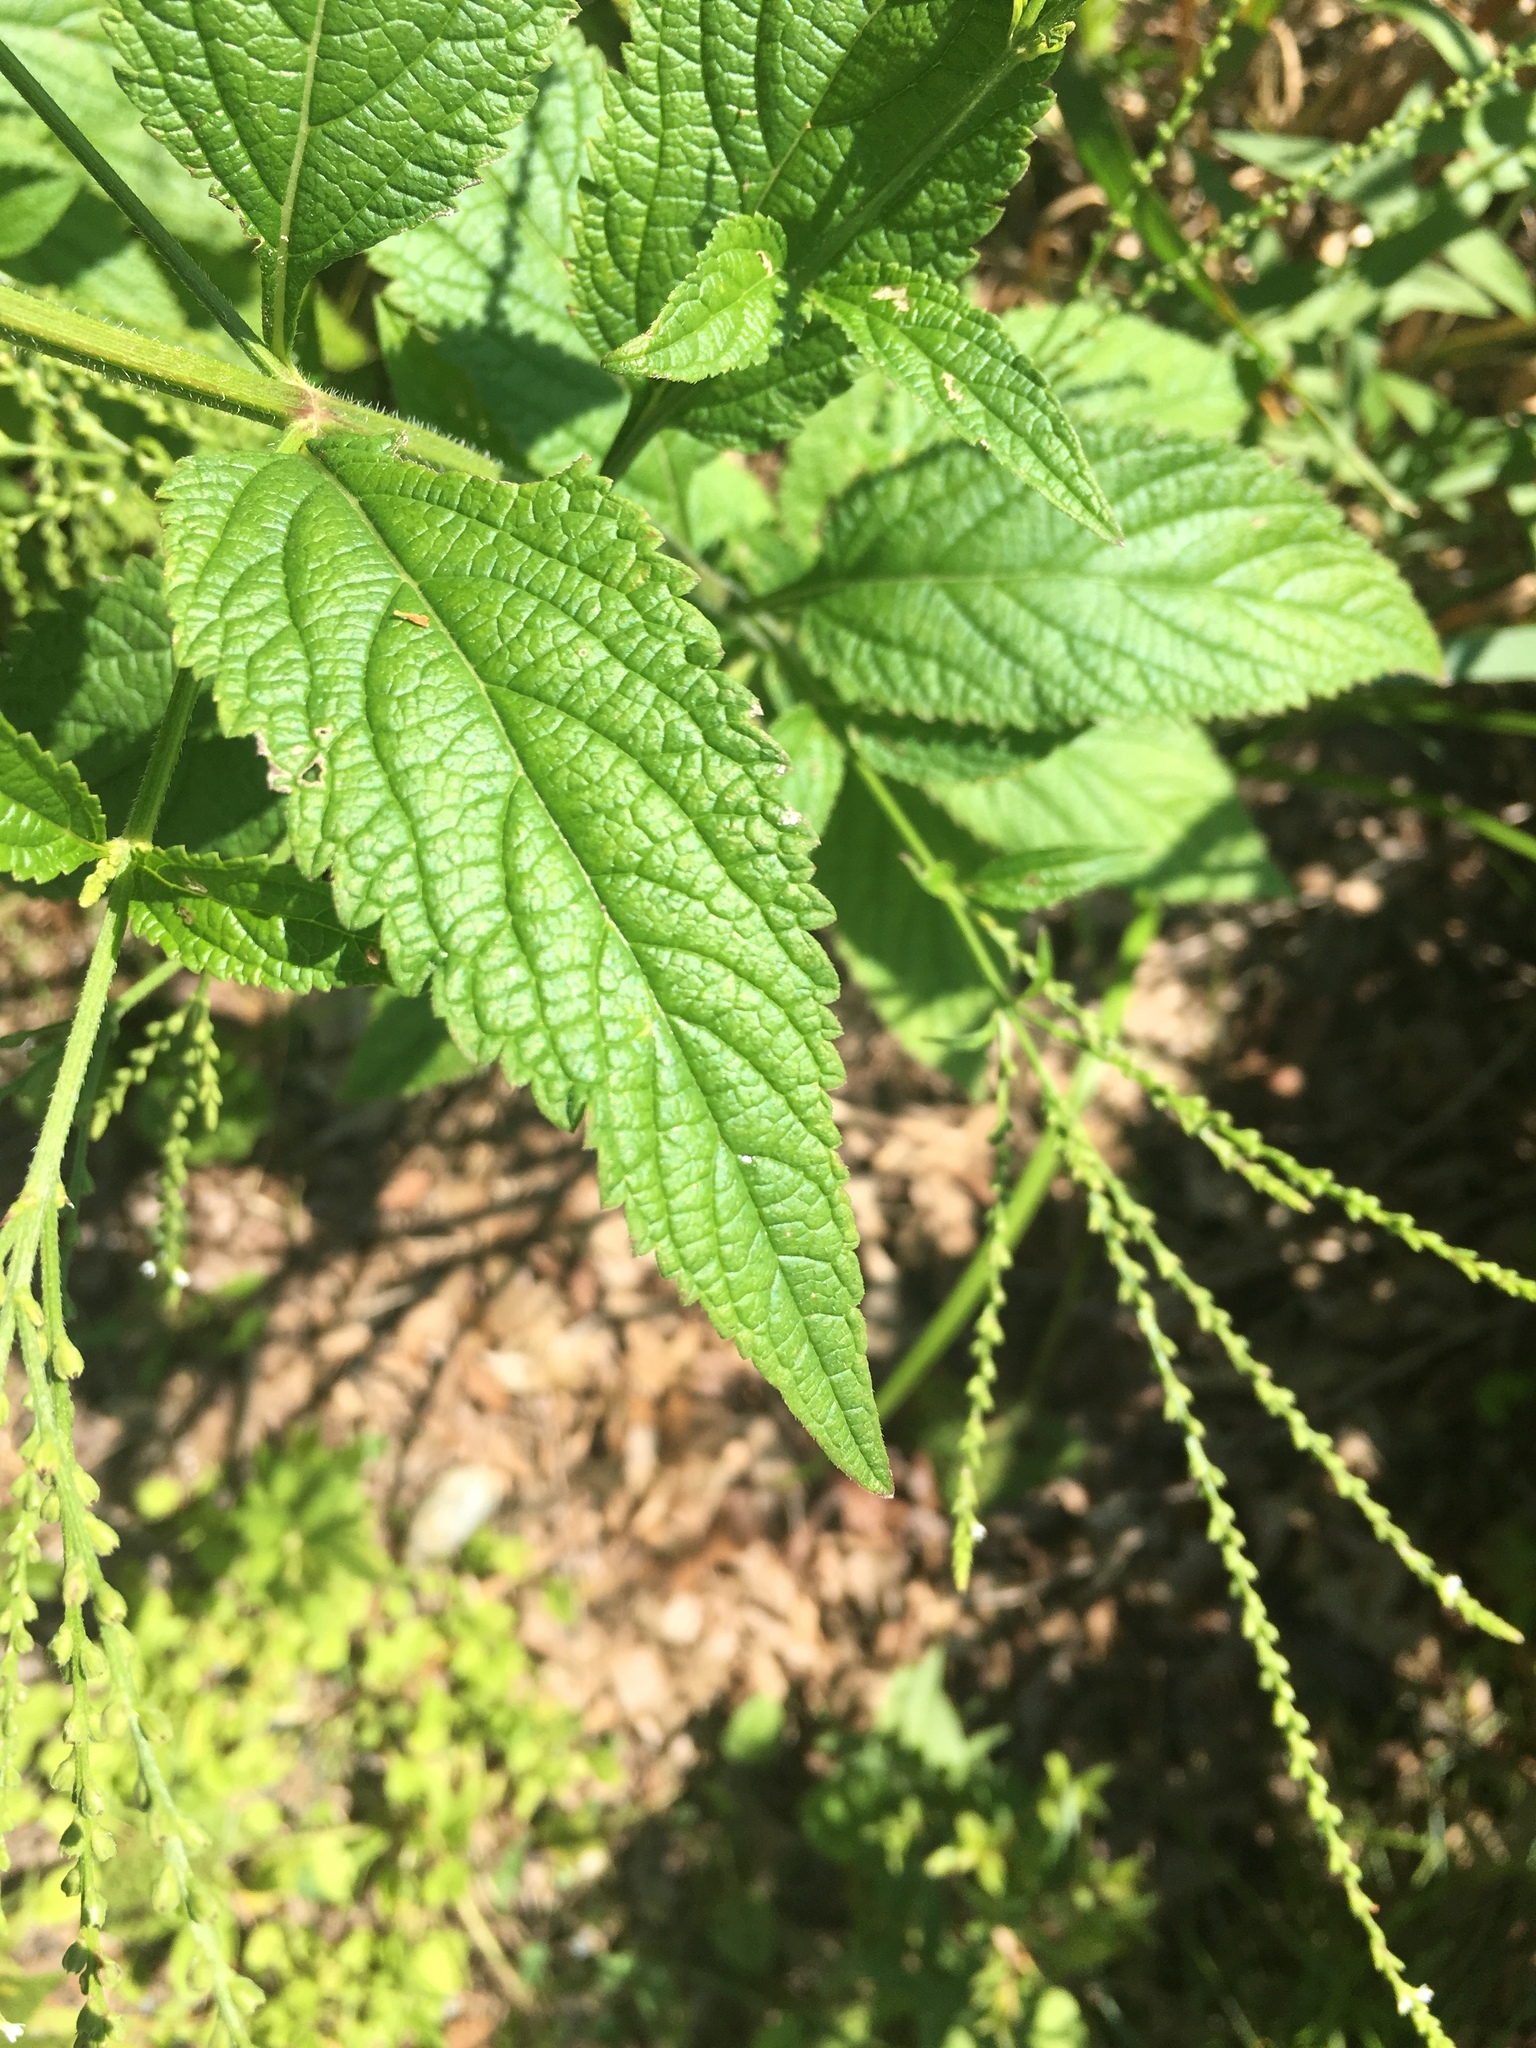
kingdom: Plantae
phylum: Tracheophyta
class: Magnoliopsida
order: Lamiales
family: Verbenaceae
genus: Verbena
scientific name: Verbena urticifolia
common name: Nettle-leaved vervain
